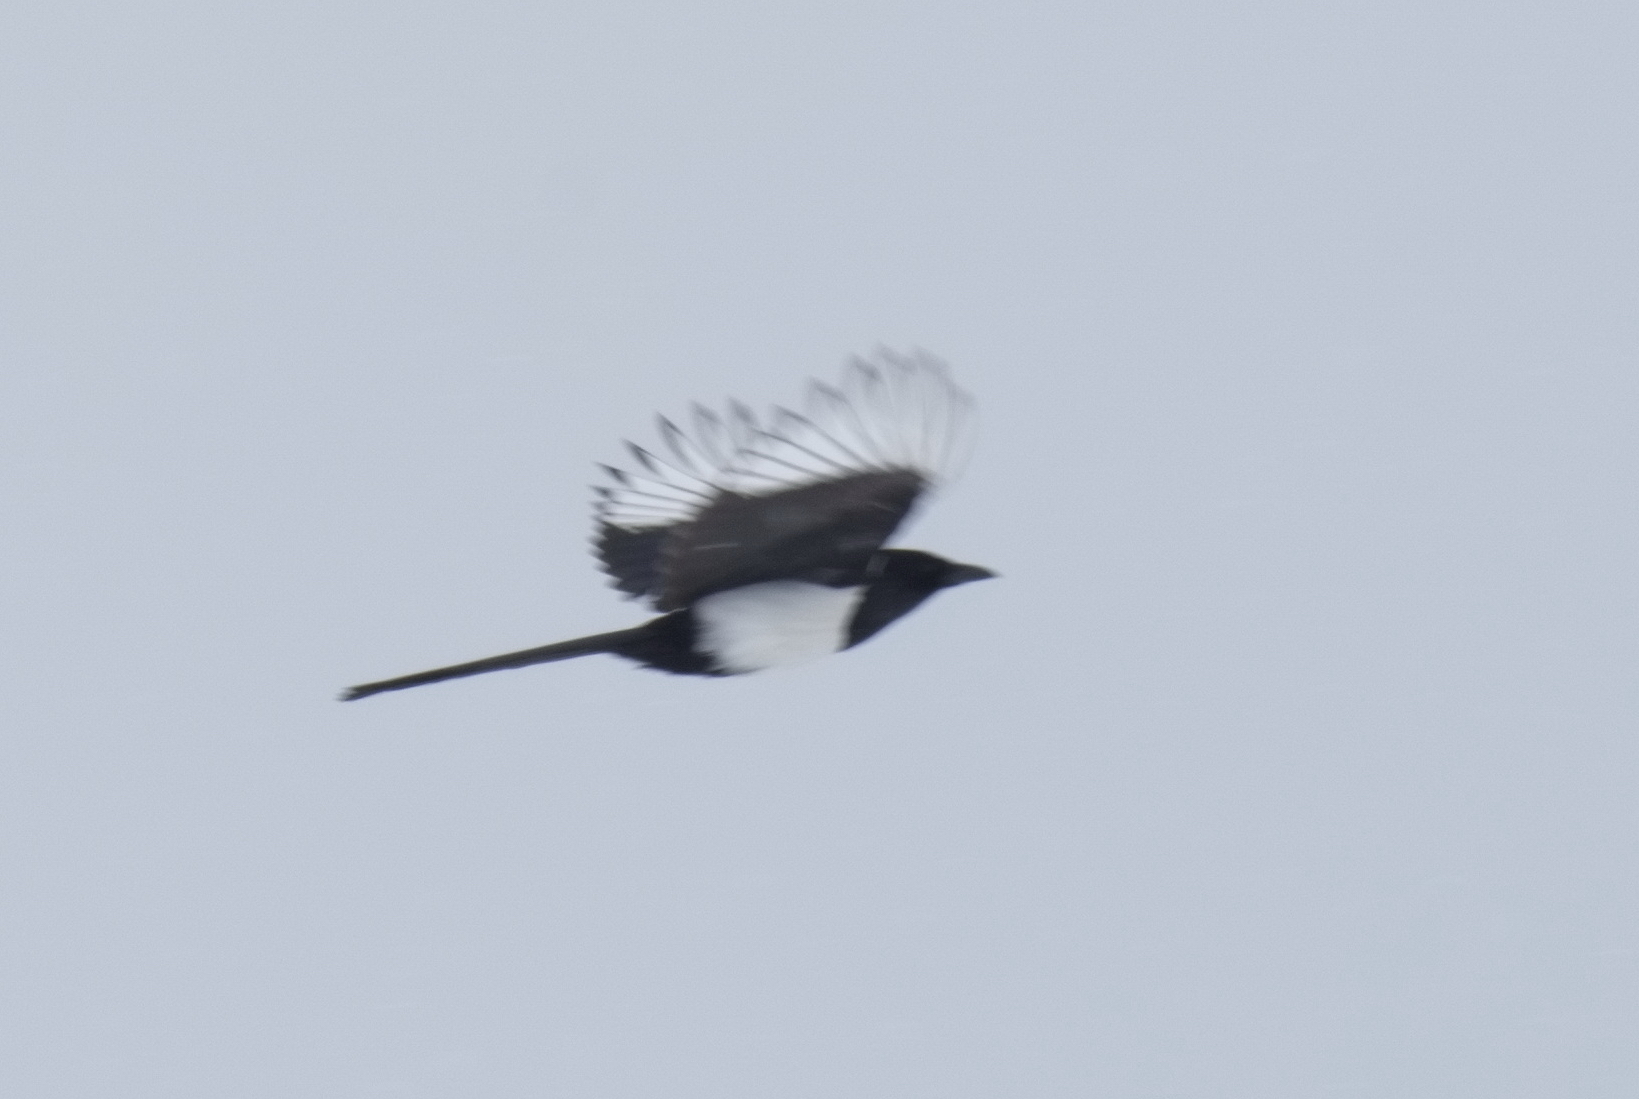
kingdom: Animalia
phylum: Chordata
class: Aves
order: Passeriformes
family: Corvidae
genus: Pica
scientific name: Pica pica
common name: Eurasian magpie
